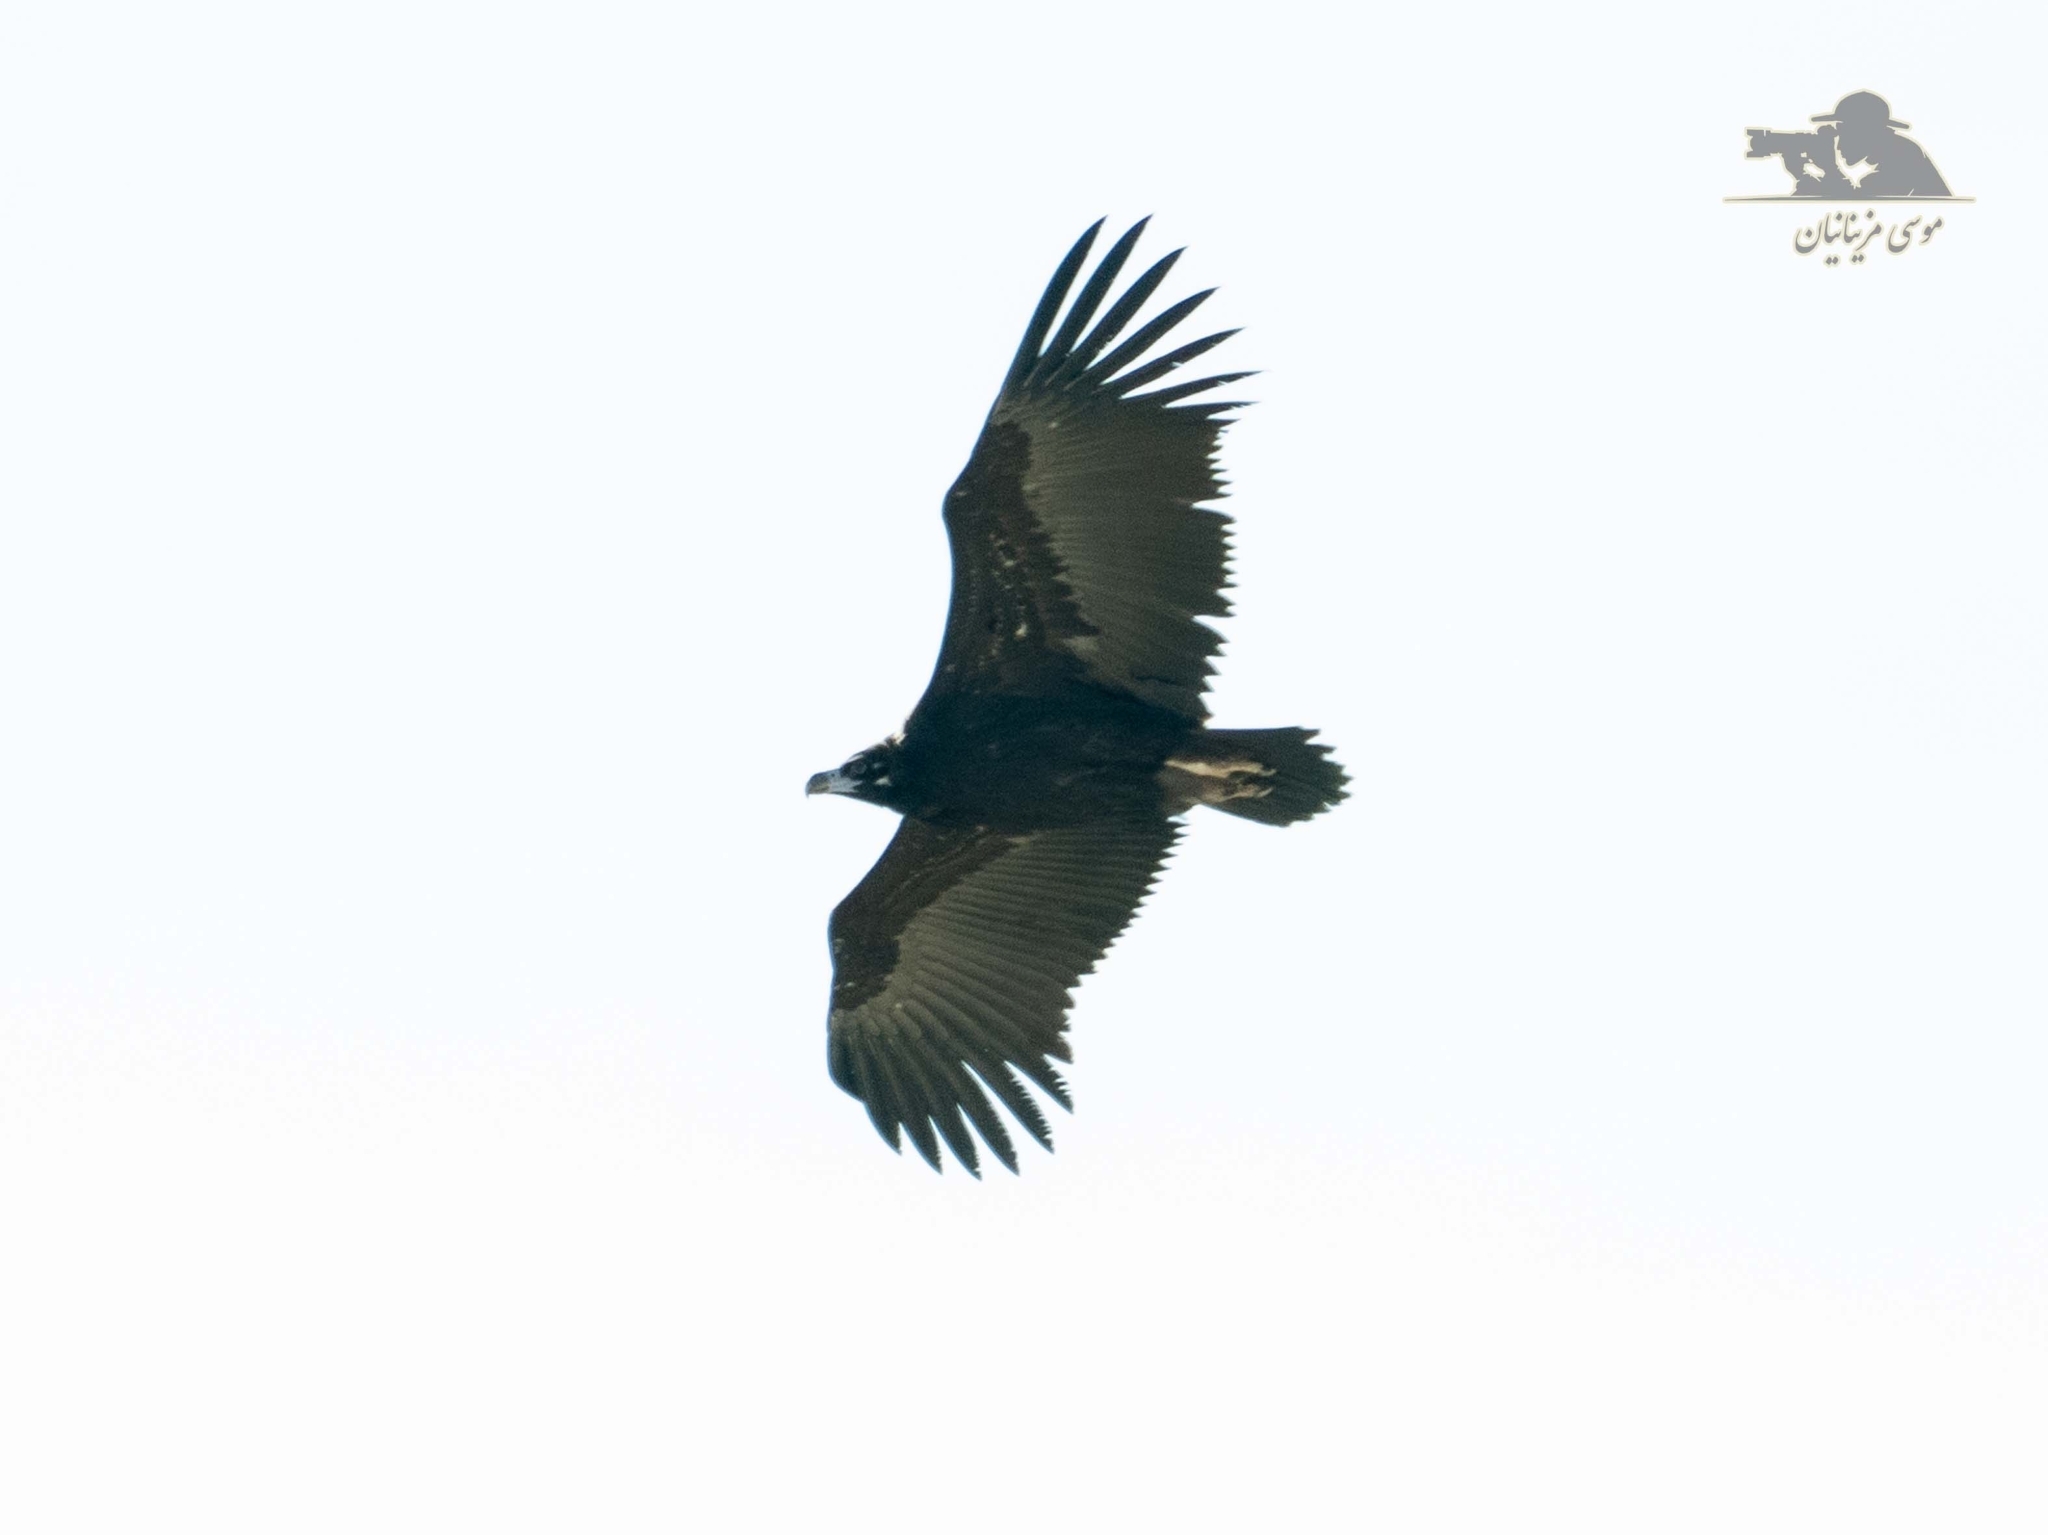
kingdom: Animalia
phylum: Chordata
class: Aves
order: Accipitriformes
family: Accipitridae
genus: Aegypius
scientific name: Aegypius monachus
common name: Cinereous vulture
